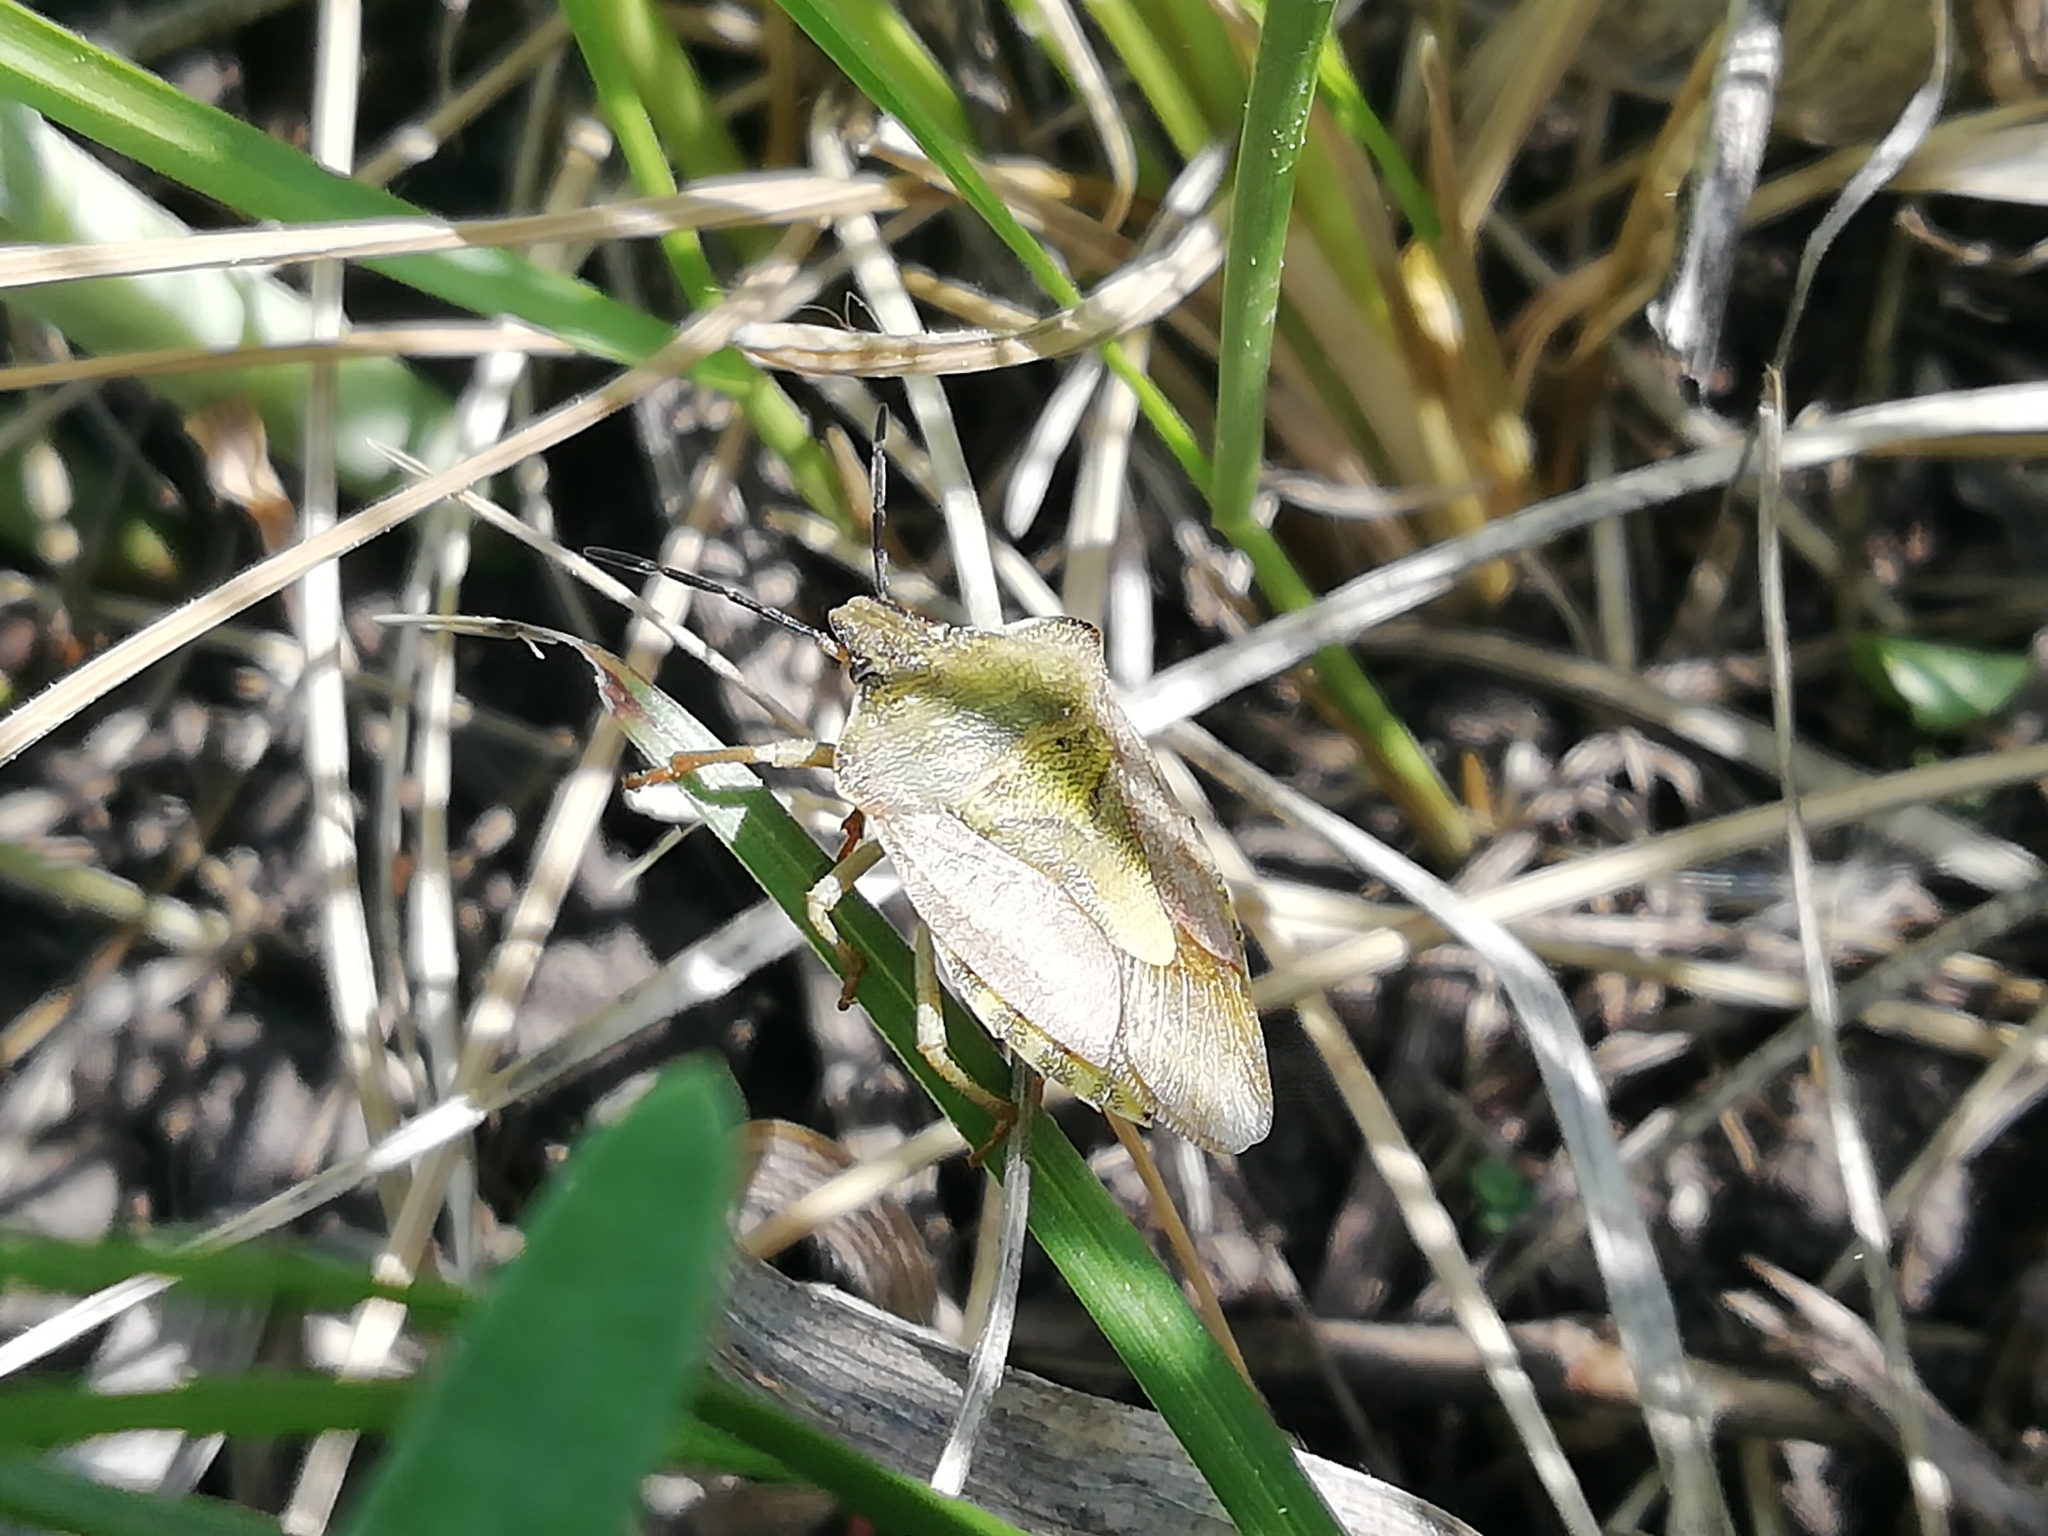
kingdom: Animalia
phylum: Arthropoda
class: Insecta
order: Hemiptera
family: Pentatomidae
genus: Carpocoris
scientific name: Carpocoris purpureipennis
